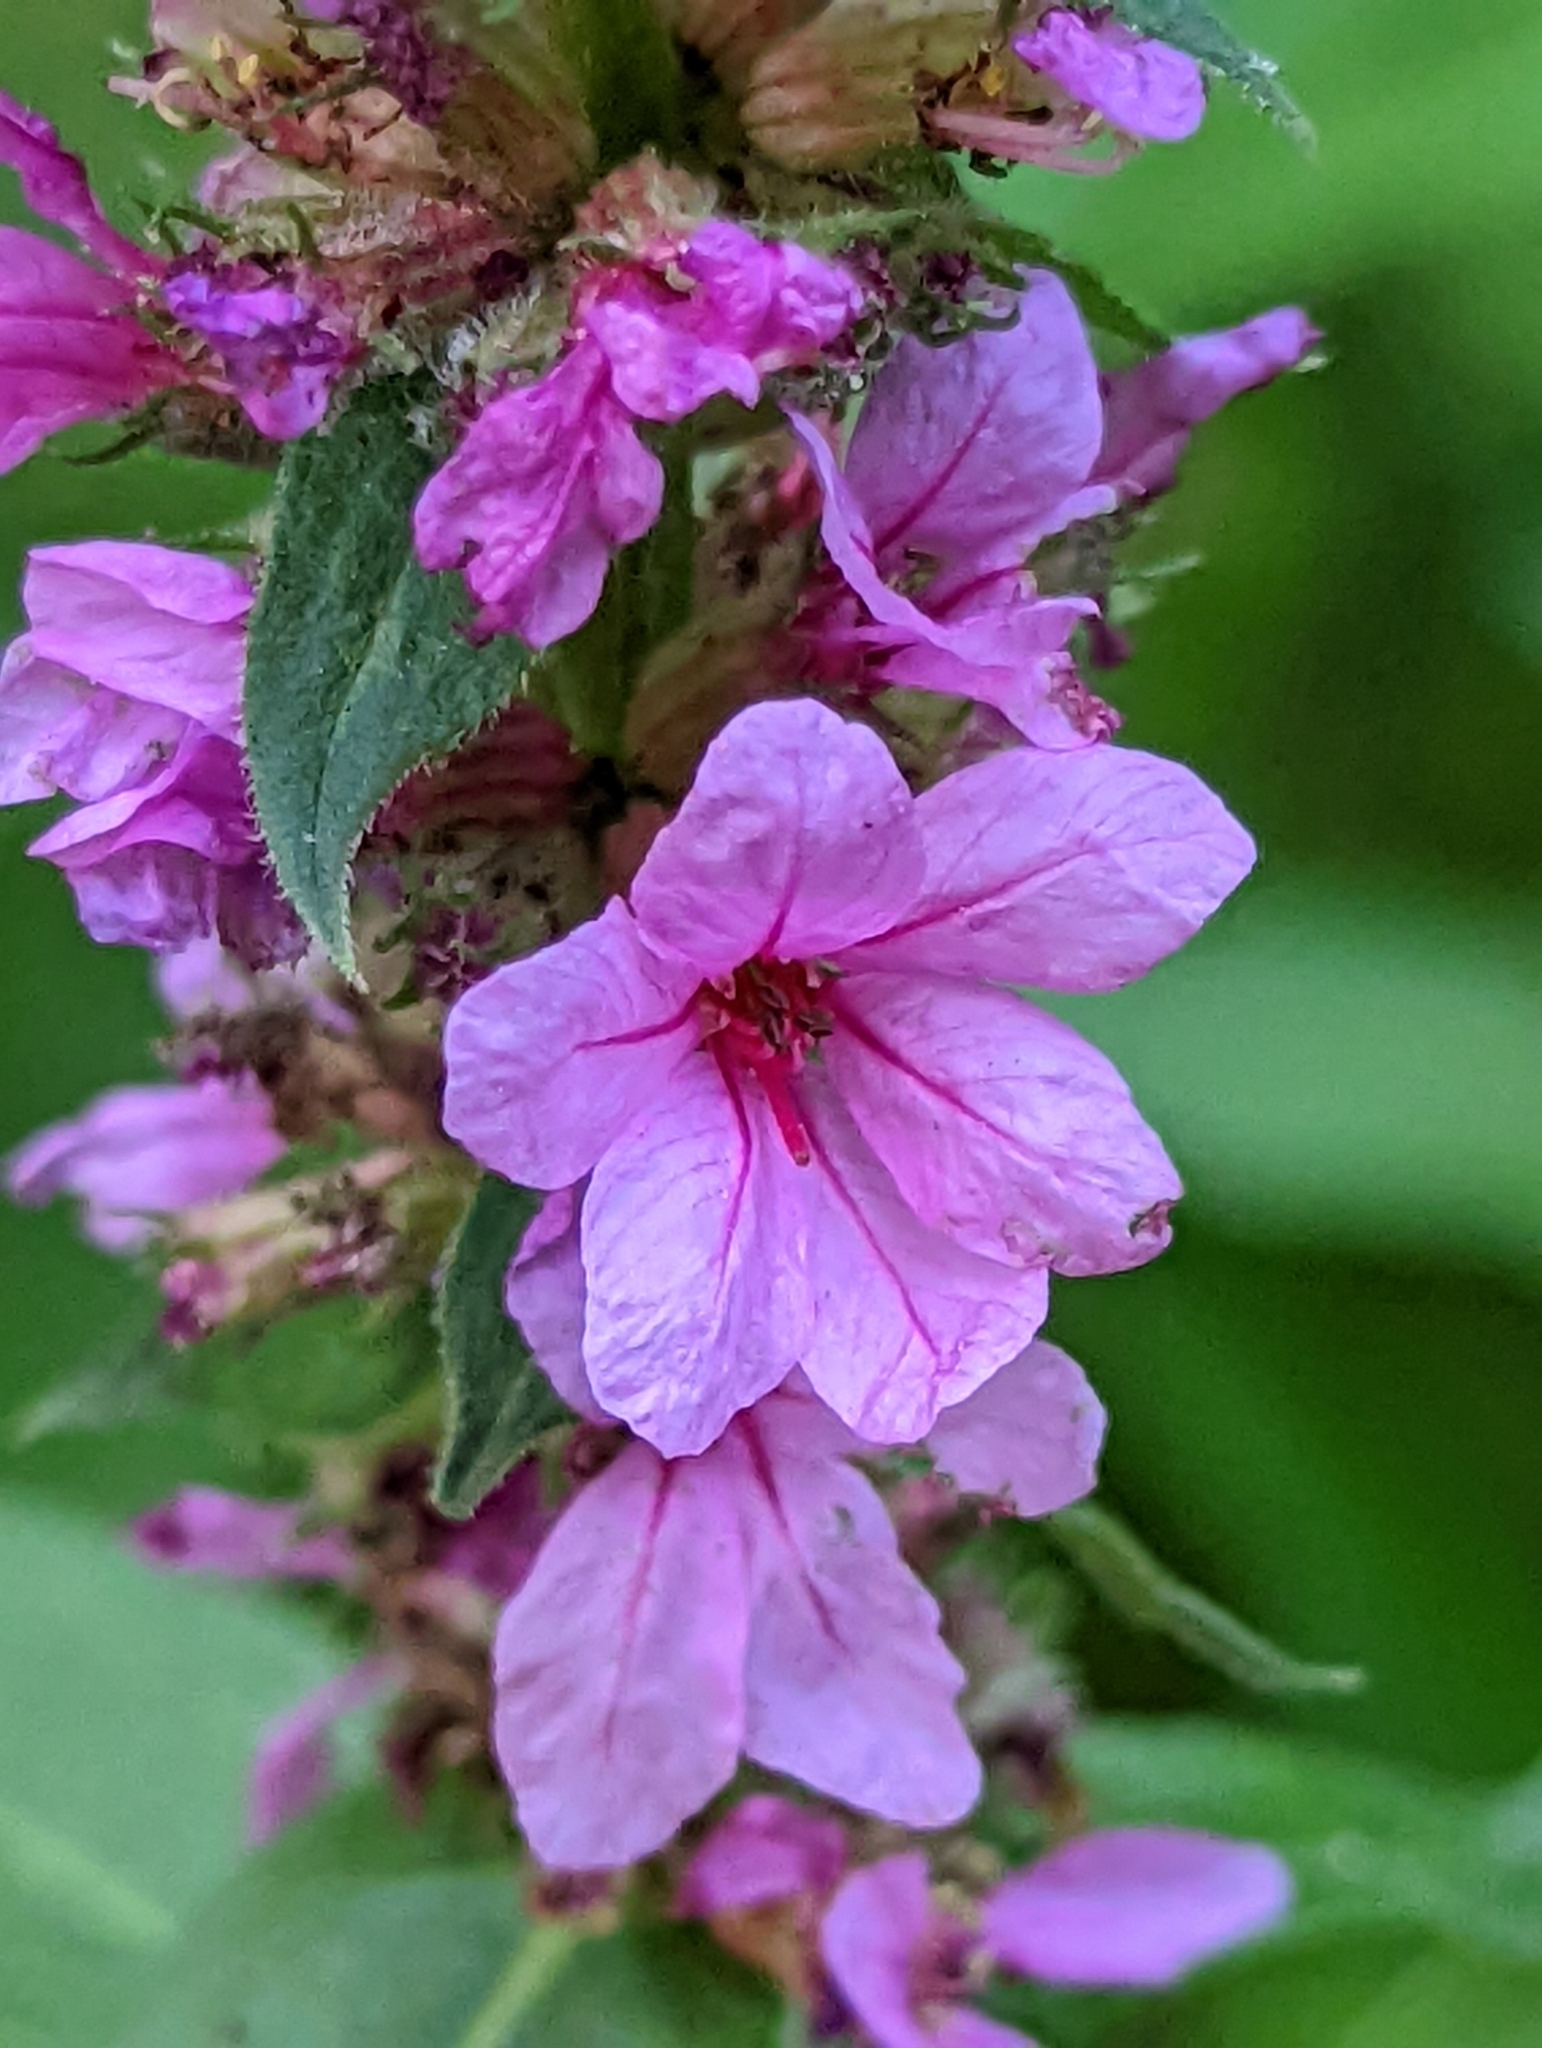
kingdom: Plantae
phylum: Tracheophyta
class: Magnoliopsida
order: Myrtales
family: Lythraceae
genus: Lythrum
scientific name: Lythrum salicaria
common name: Purple loosestrife
